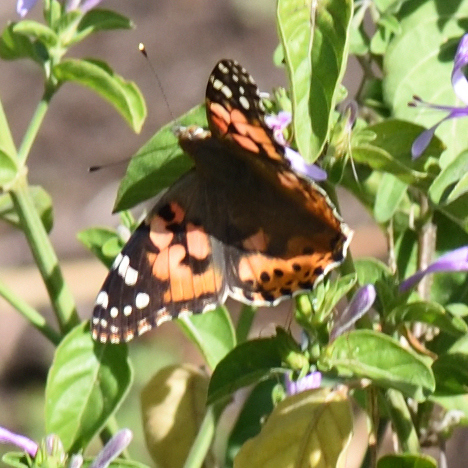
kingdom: Animalia
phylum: Arthropoda
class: Insecta
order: Lepidoptera
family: Nymphalidae
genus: Vanessa
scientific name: Vanessa cardui
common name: Painted lady
